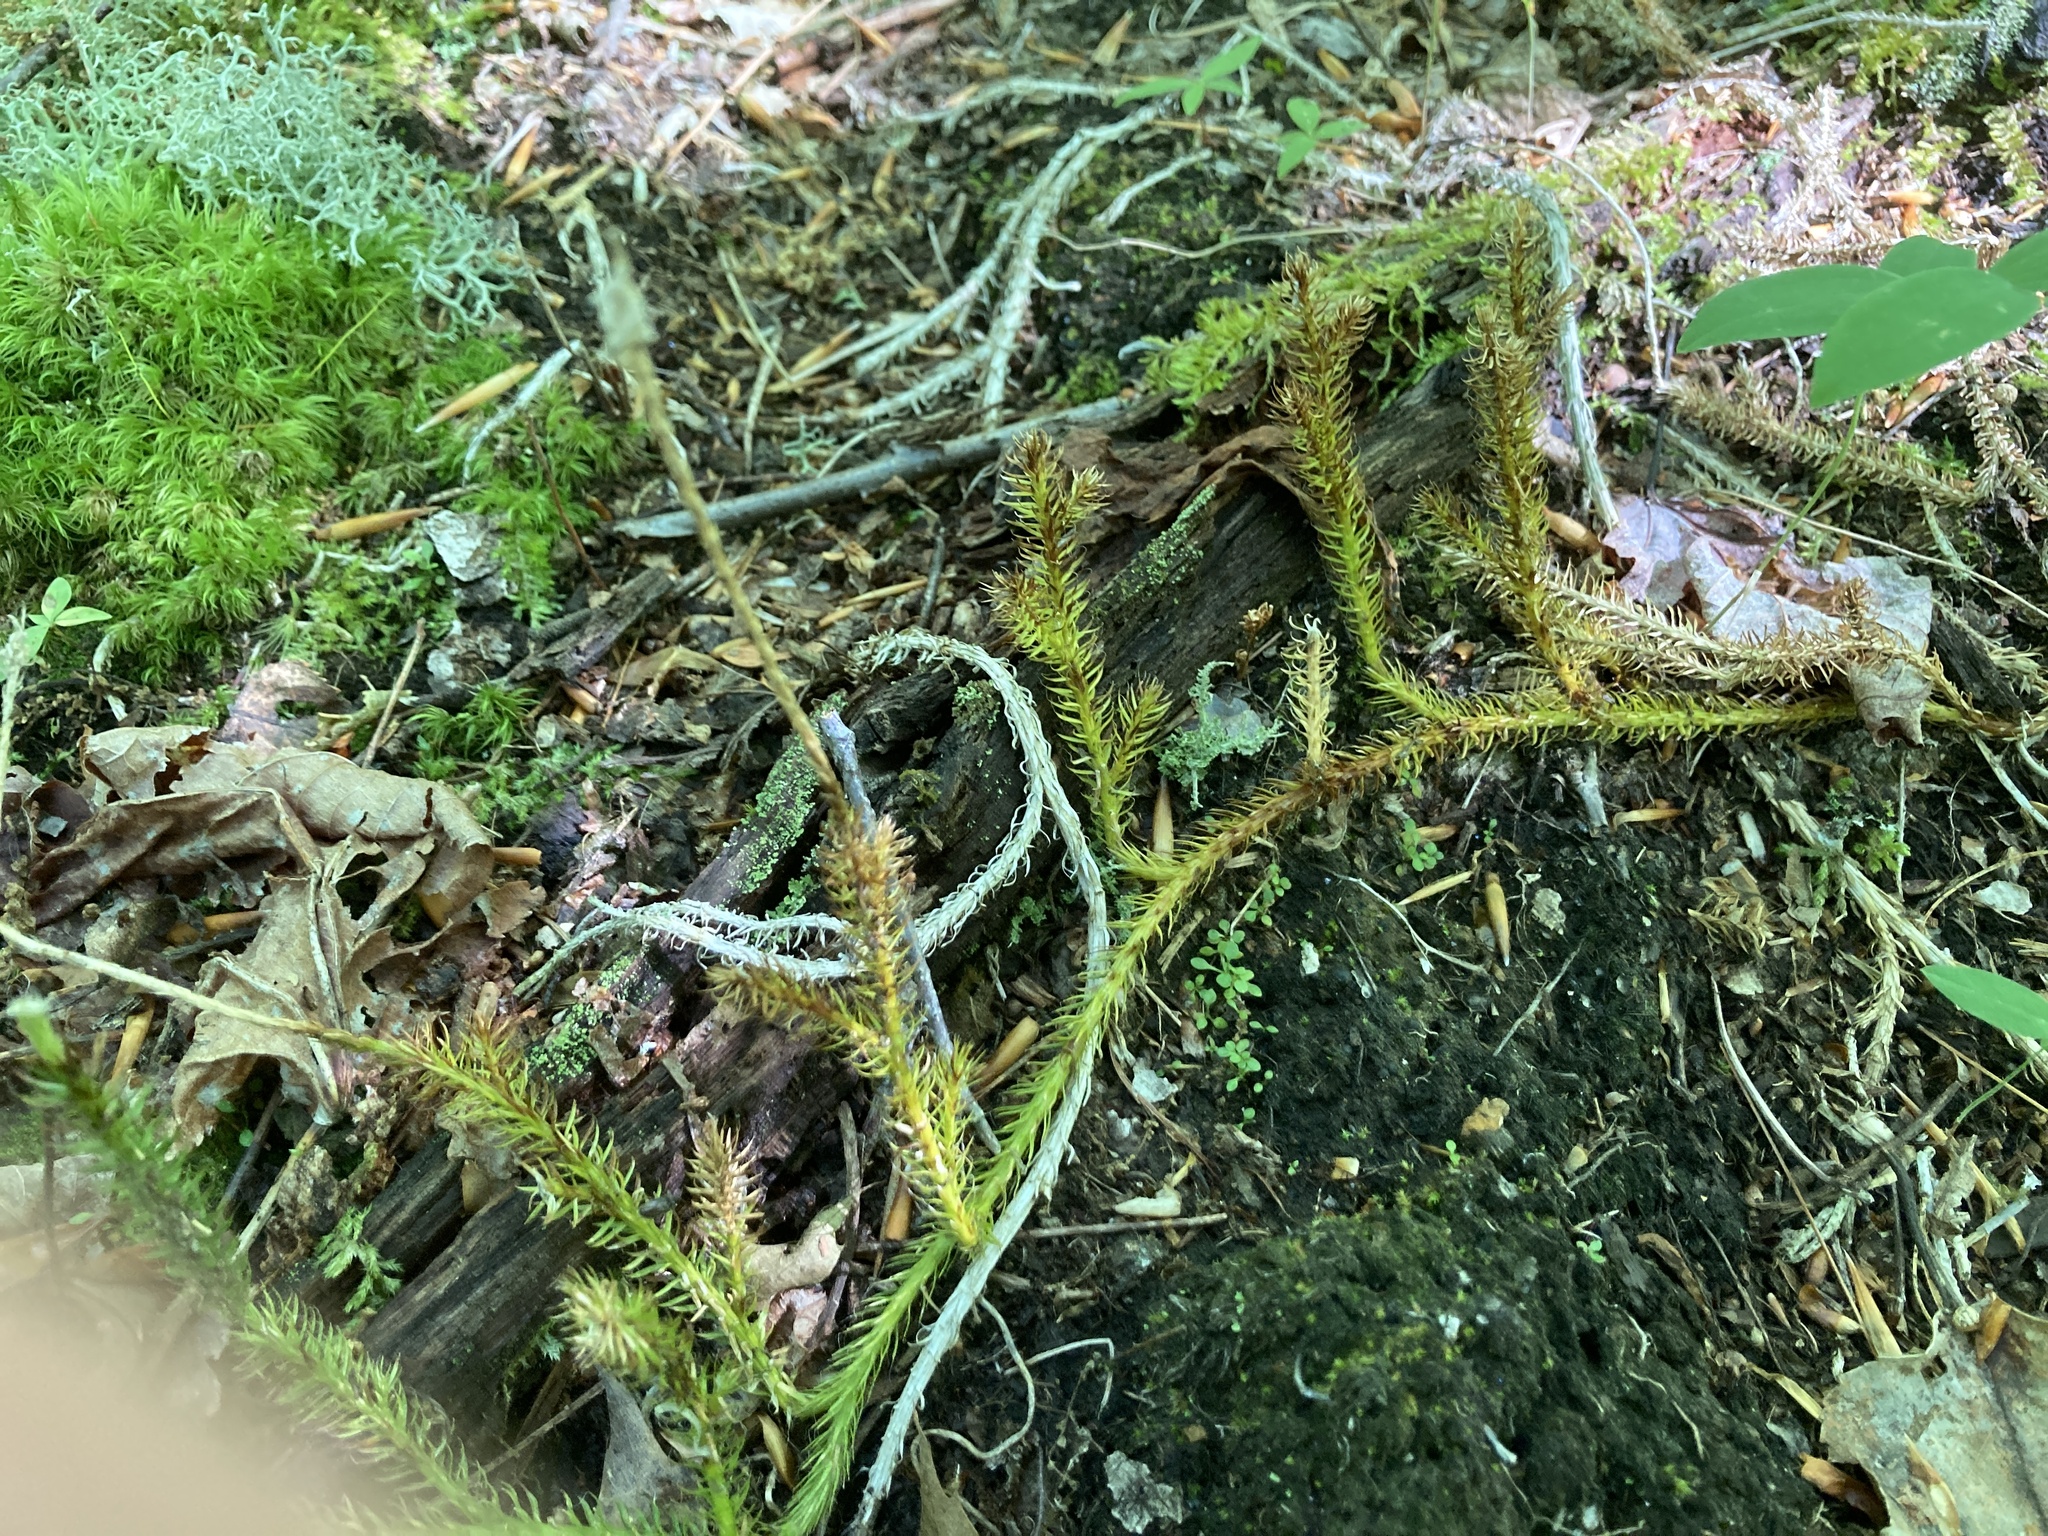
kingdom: Plantae
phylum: Tracheophyta
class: Lycopodiopsida
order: Lycopodiales
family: Lycopodiaceae
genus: Lycopodium
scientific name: Lycopodium clavatum
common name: Stag's-horn clubmoss
